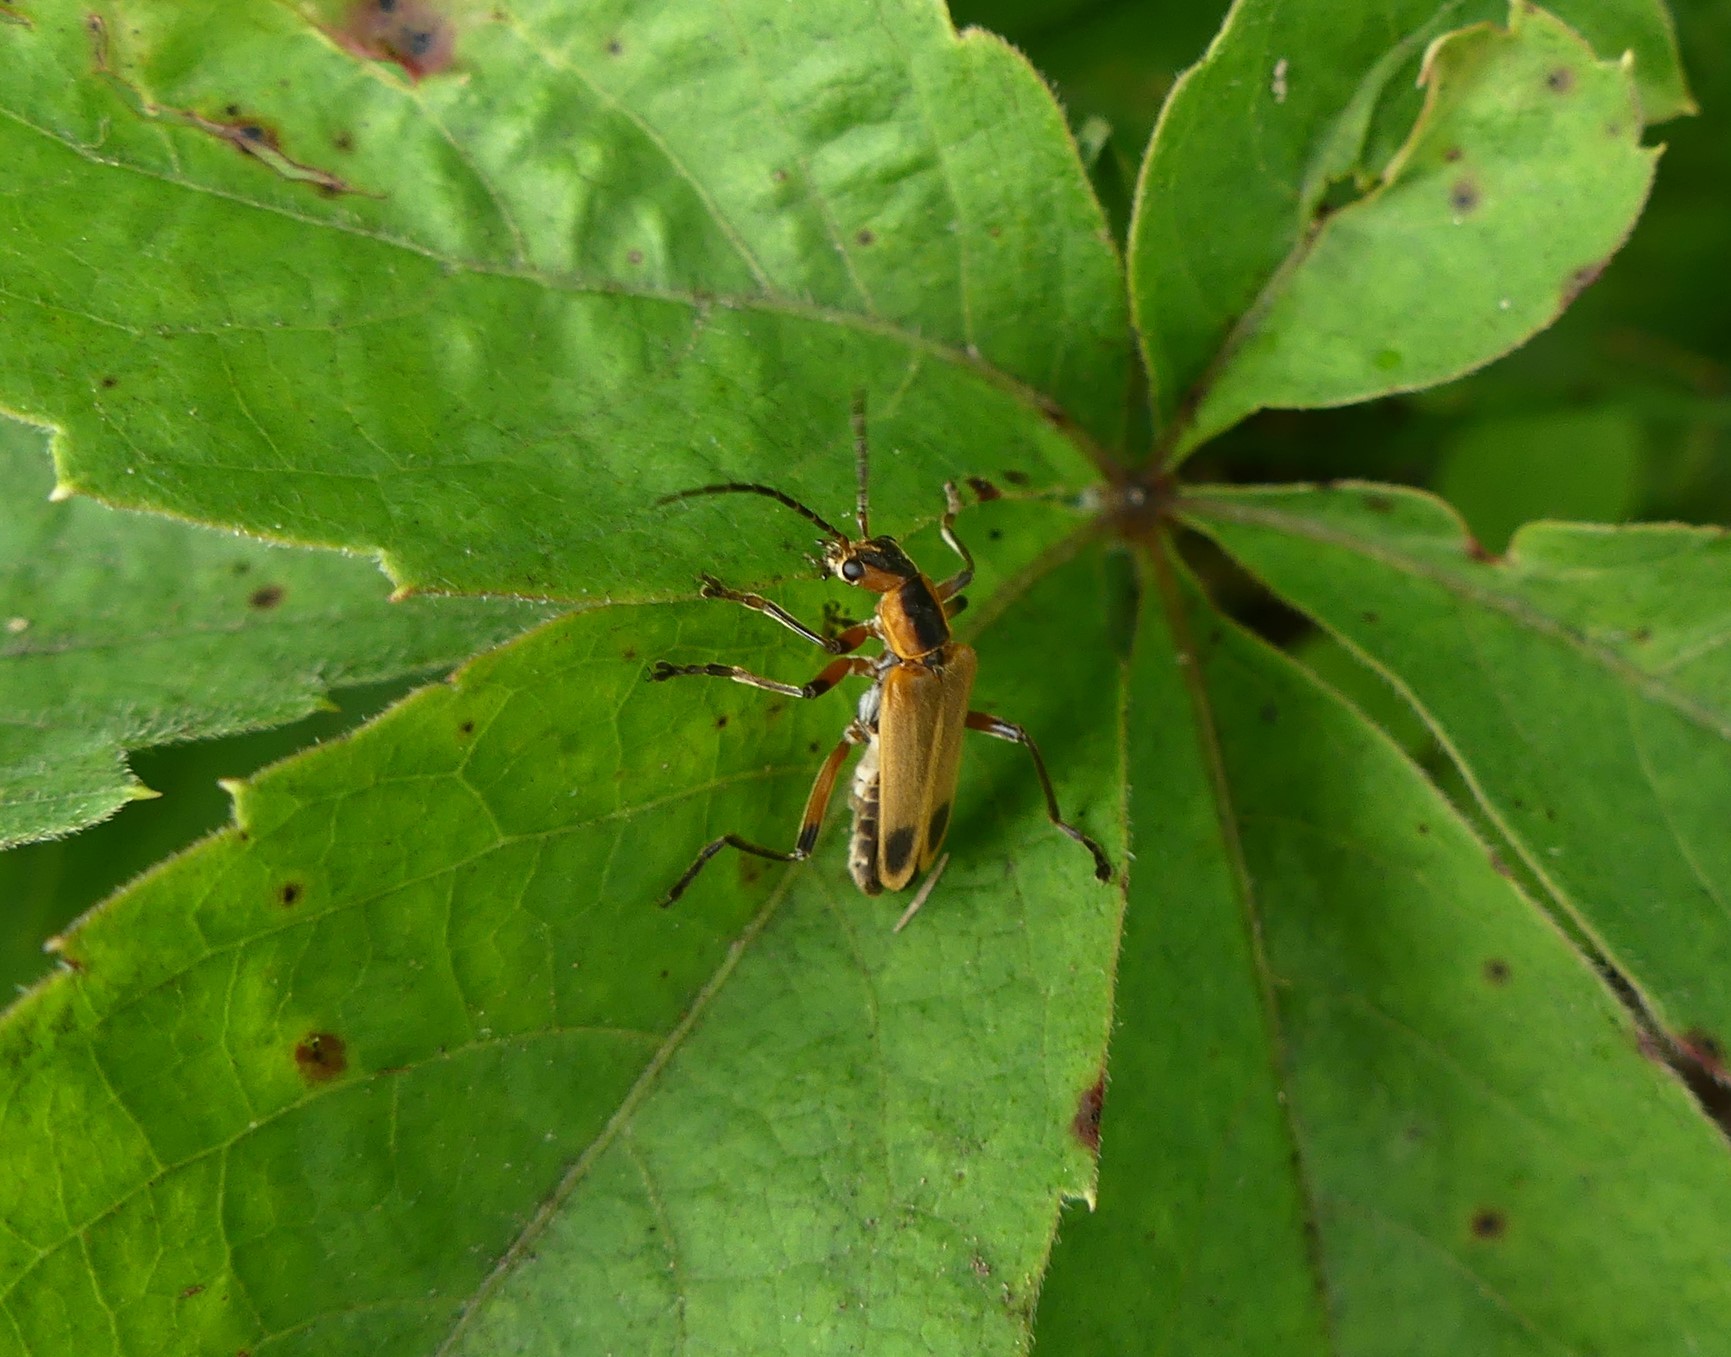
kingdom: Animalia
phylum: Arthropoda
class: Insecta
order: Coleoptera
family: Cantharidae
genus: Chauliognathus
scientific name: Chauliognathus marginatus
